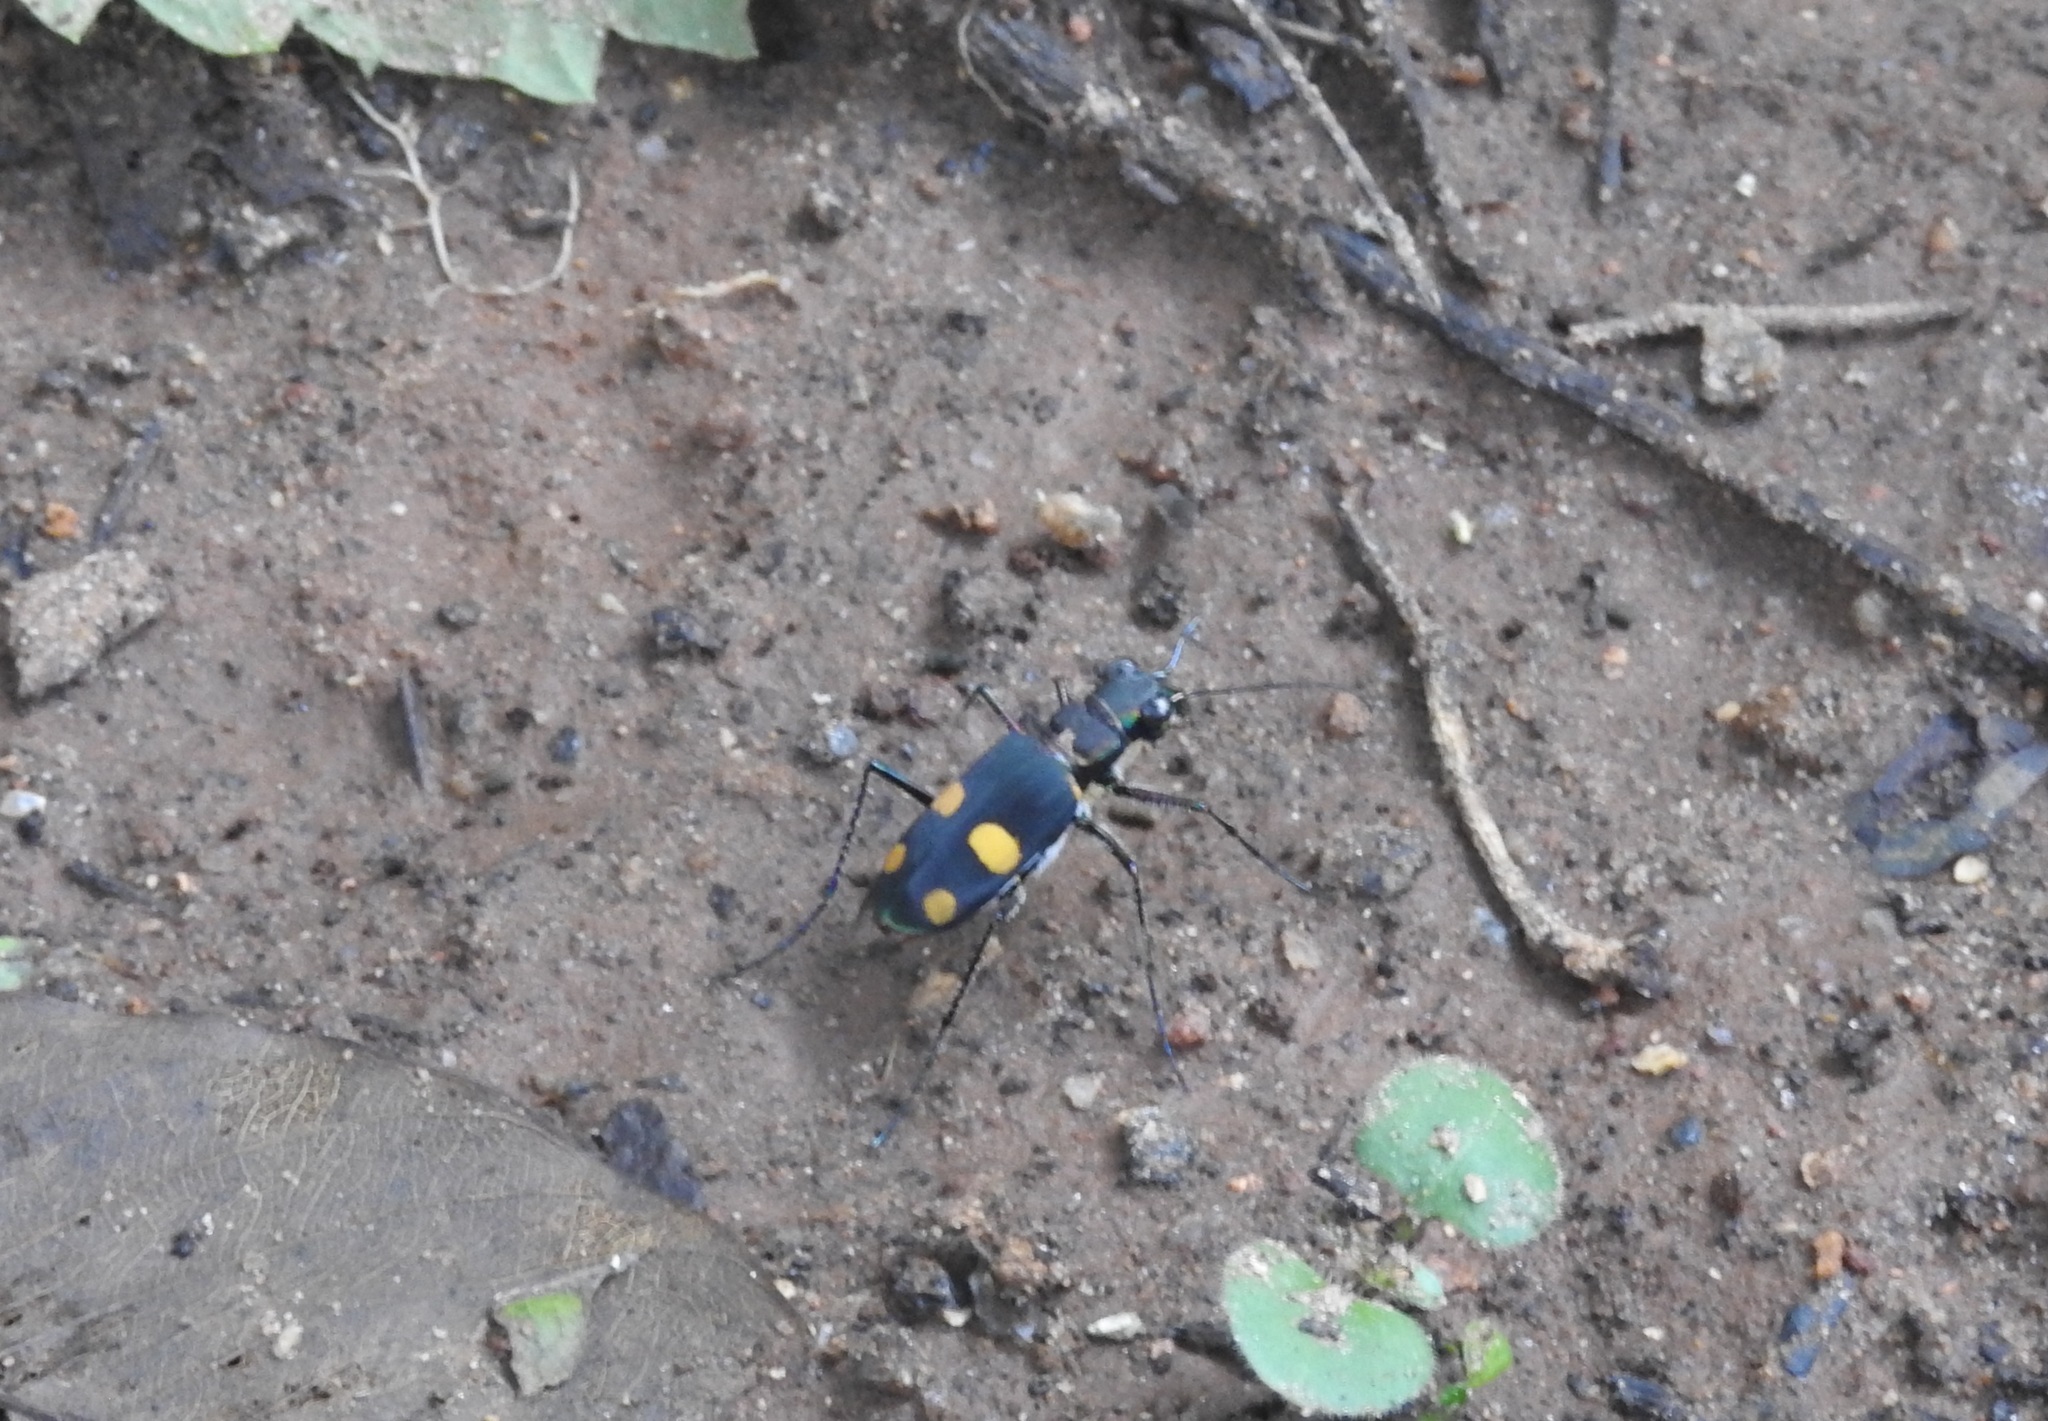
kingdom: Animalia
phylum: Arthropoda
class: Insecta
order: Coleoptera
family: Carabidae
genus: Cicindela
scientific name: Cicindela bicolor
